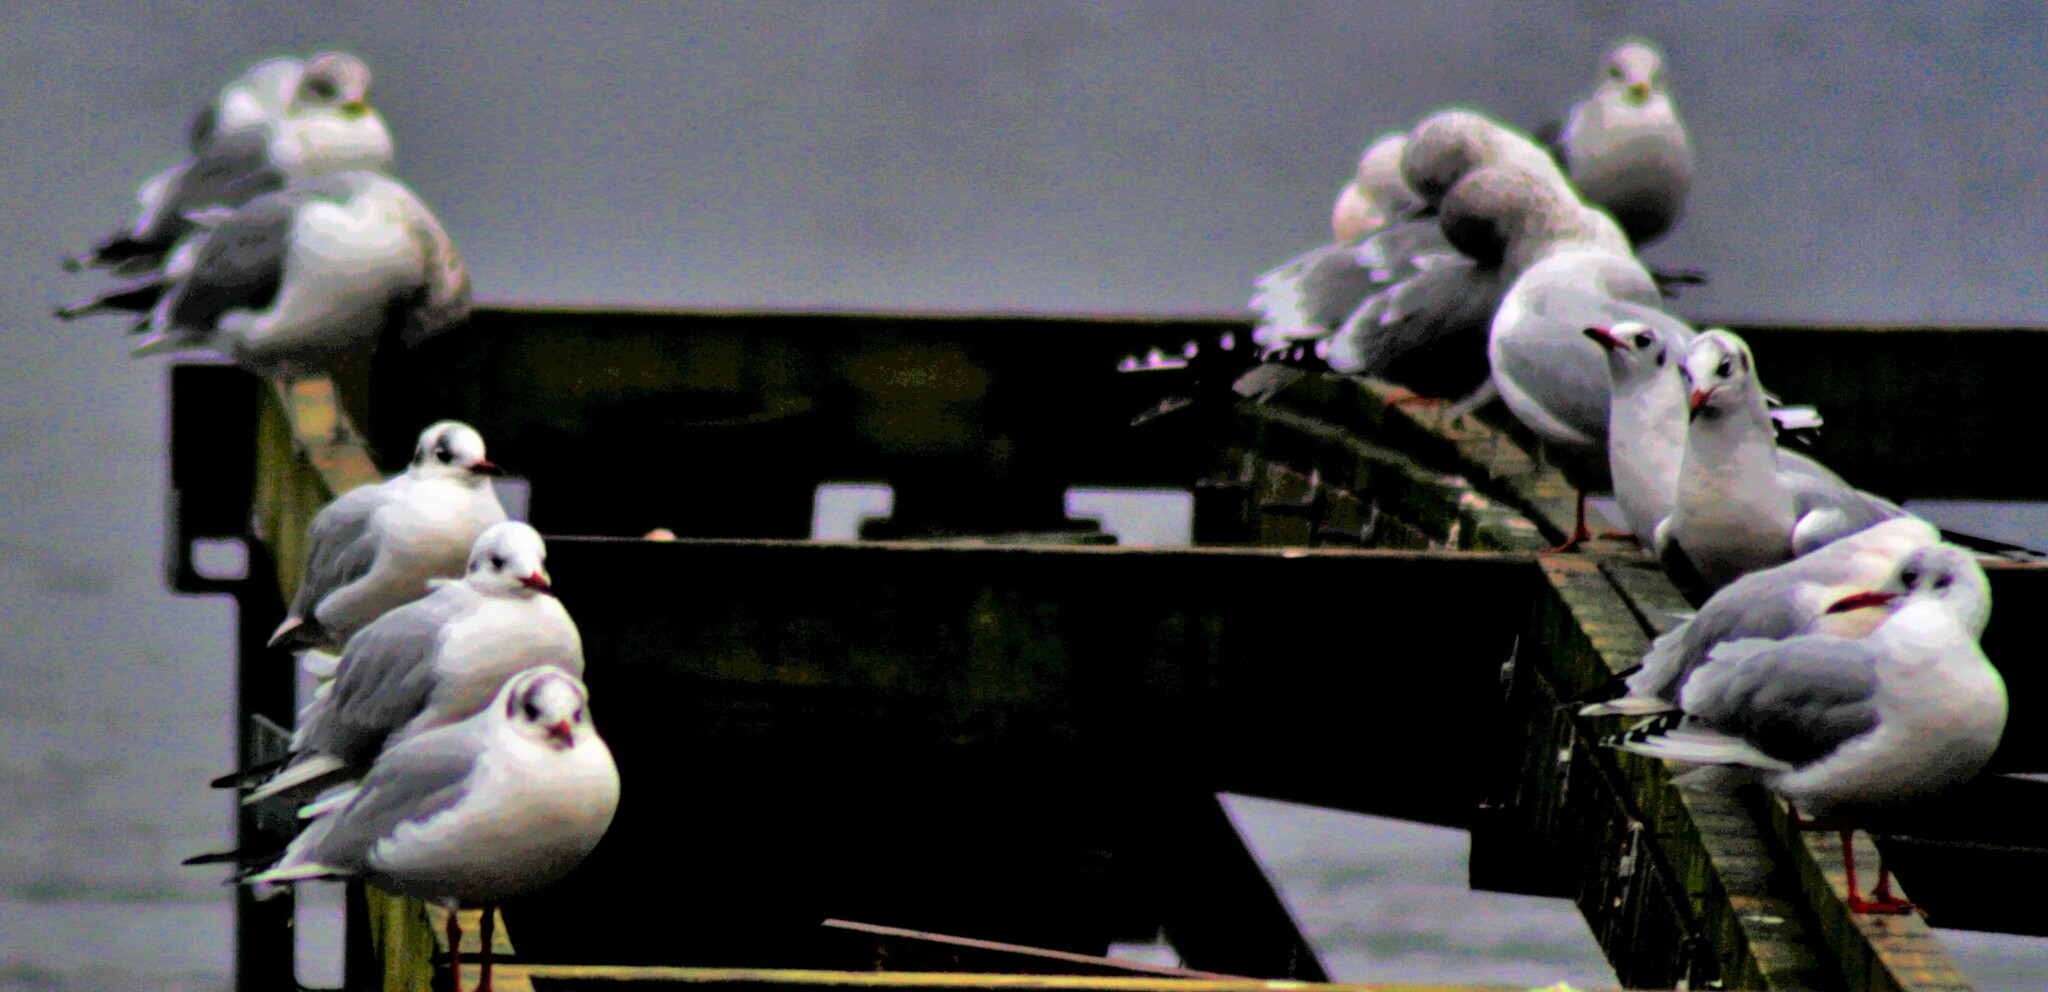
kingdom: Animalia
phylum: Chordata
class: Aves
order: Charadriiformes
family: Laridae
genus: Chroicocephalus
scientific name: Chroicocephalus ridibundus
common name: Black-headed gull
